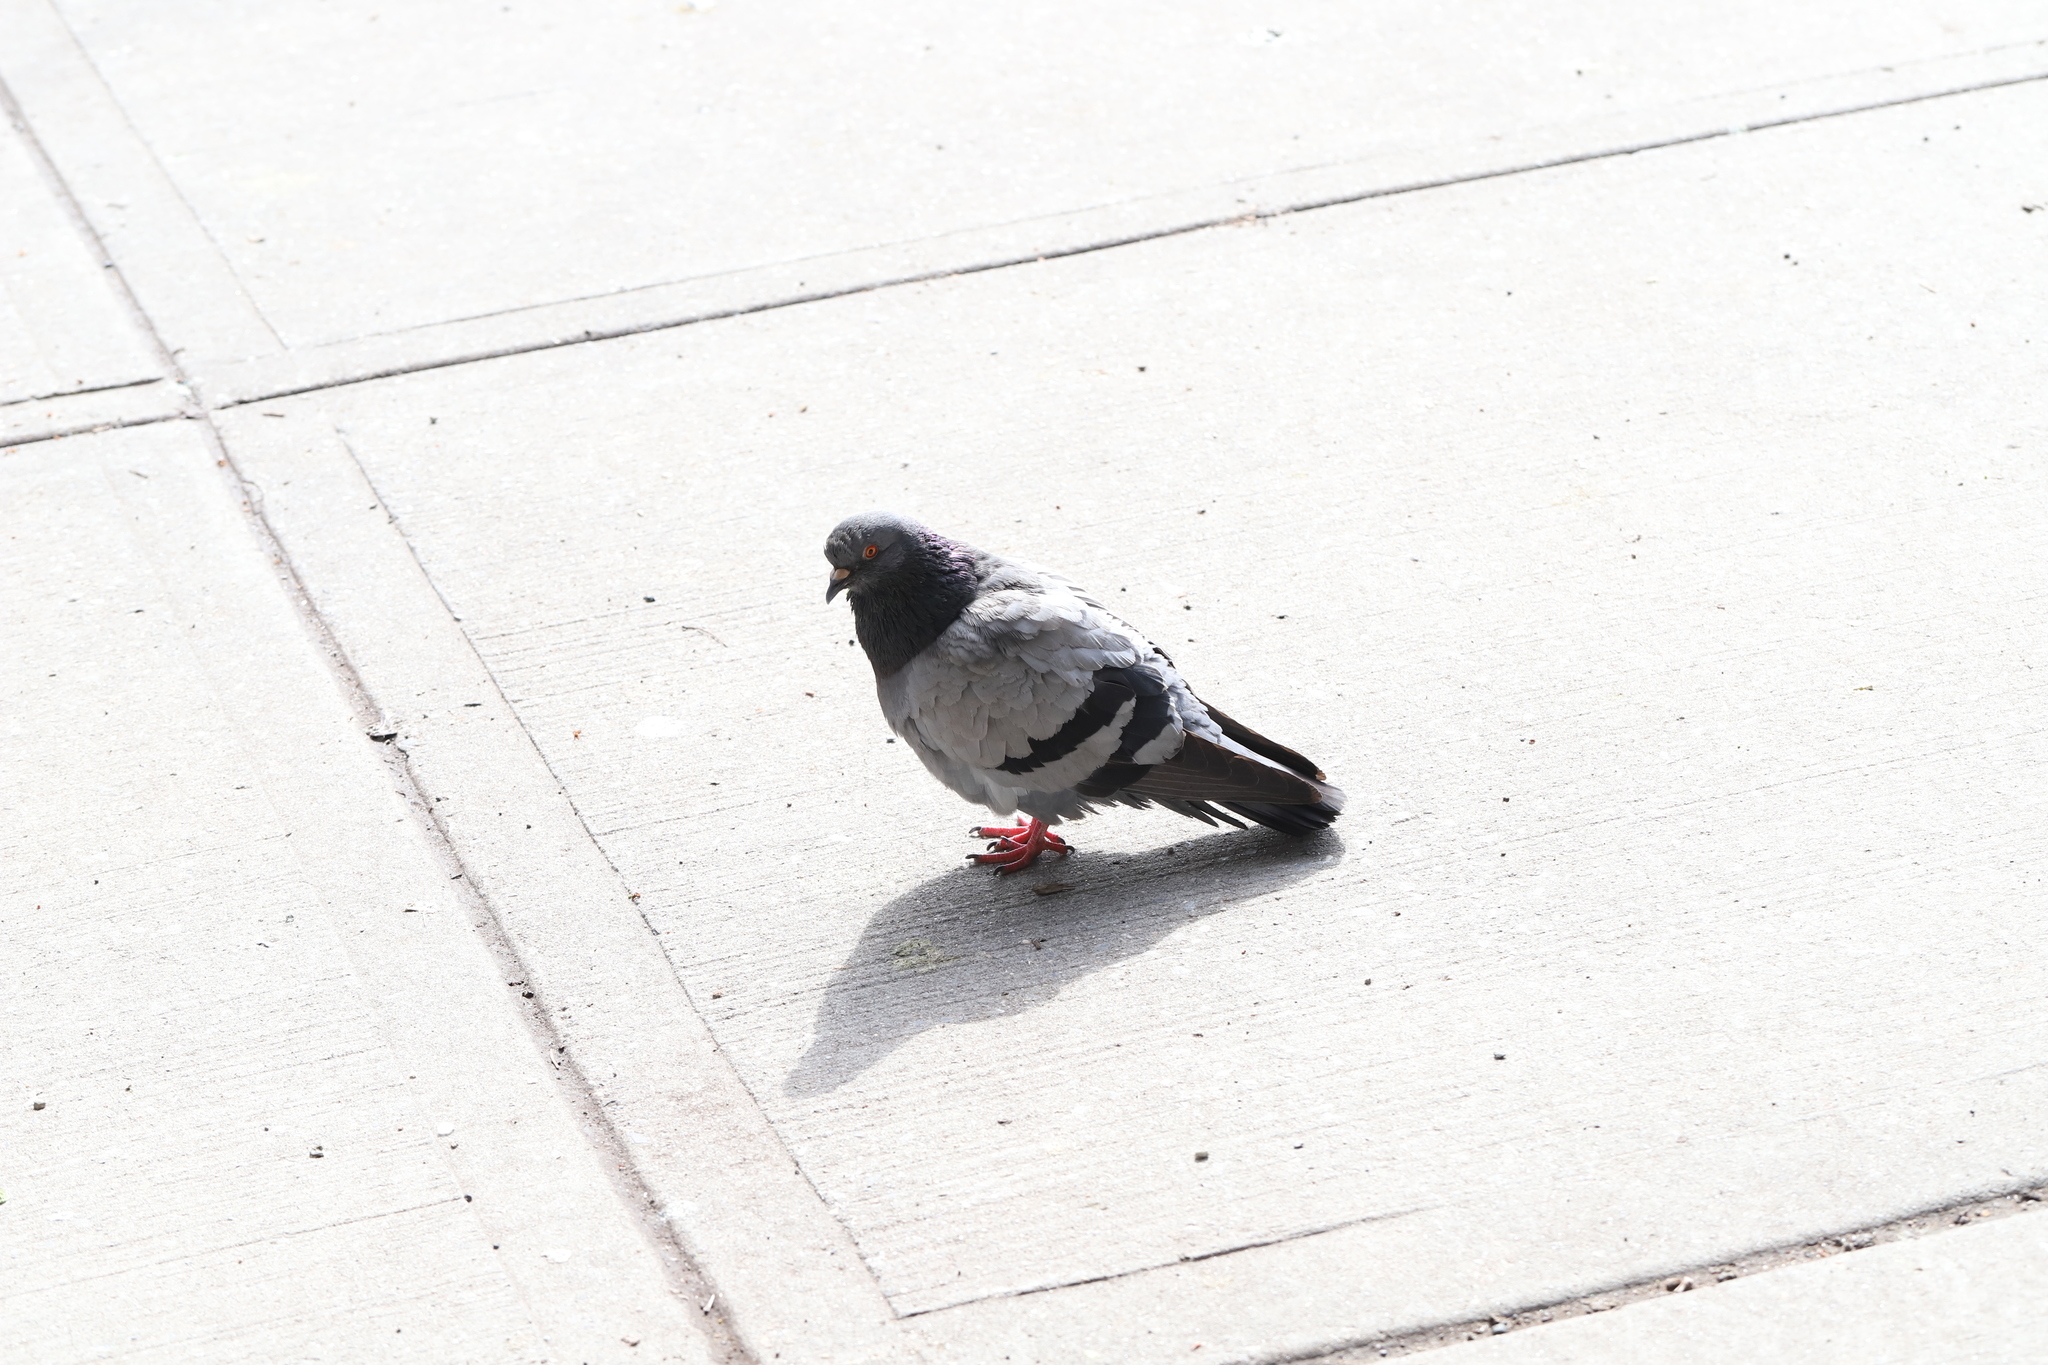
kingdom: Animalia
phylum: Chordata
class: Aves
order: Columbiformes
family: Columbidae
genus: Columba
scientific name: Columba livia
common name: Rock pigeon
